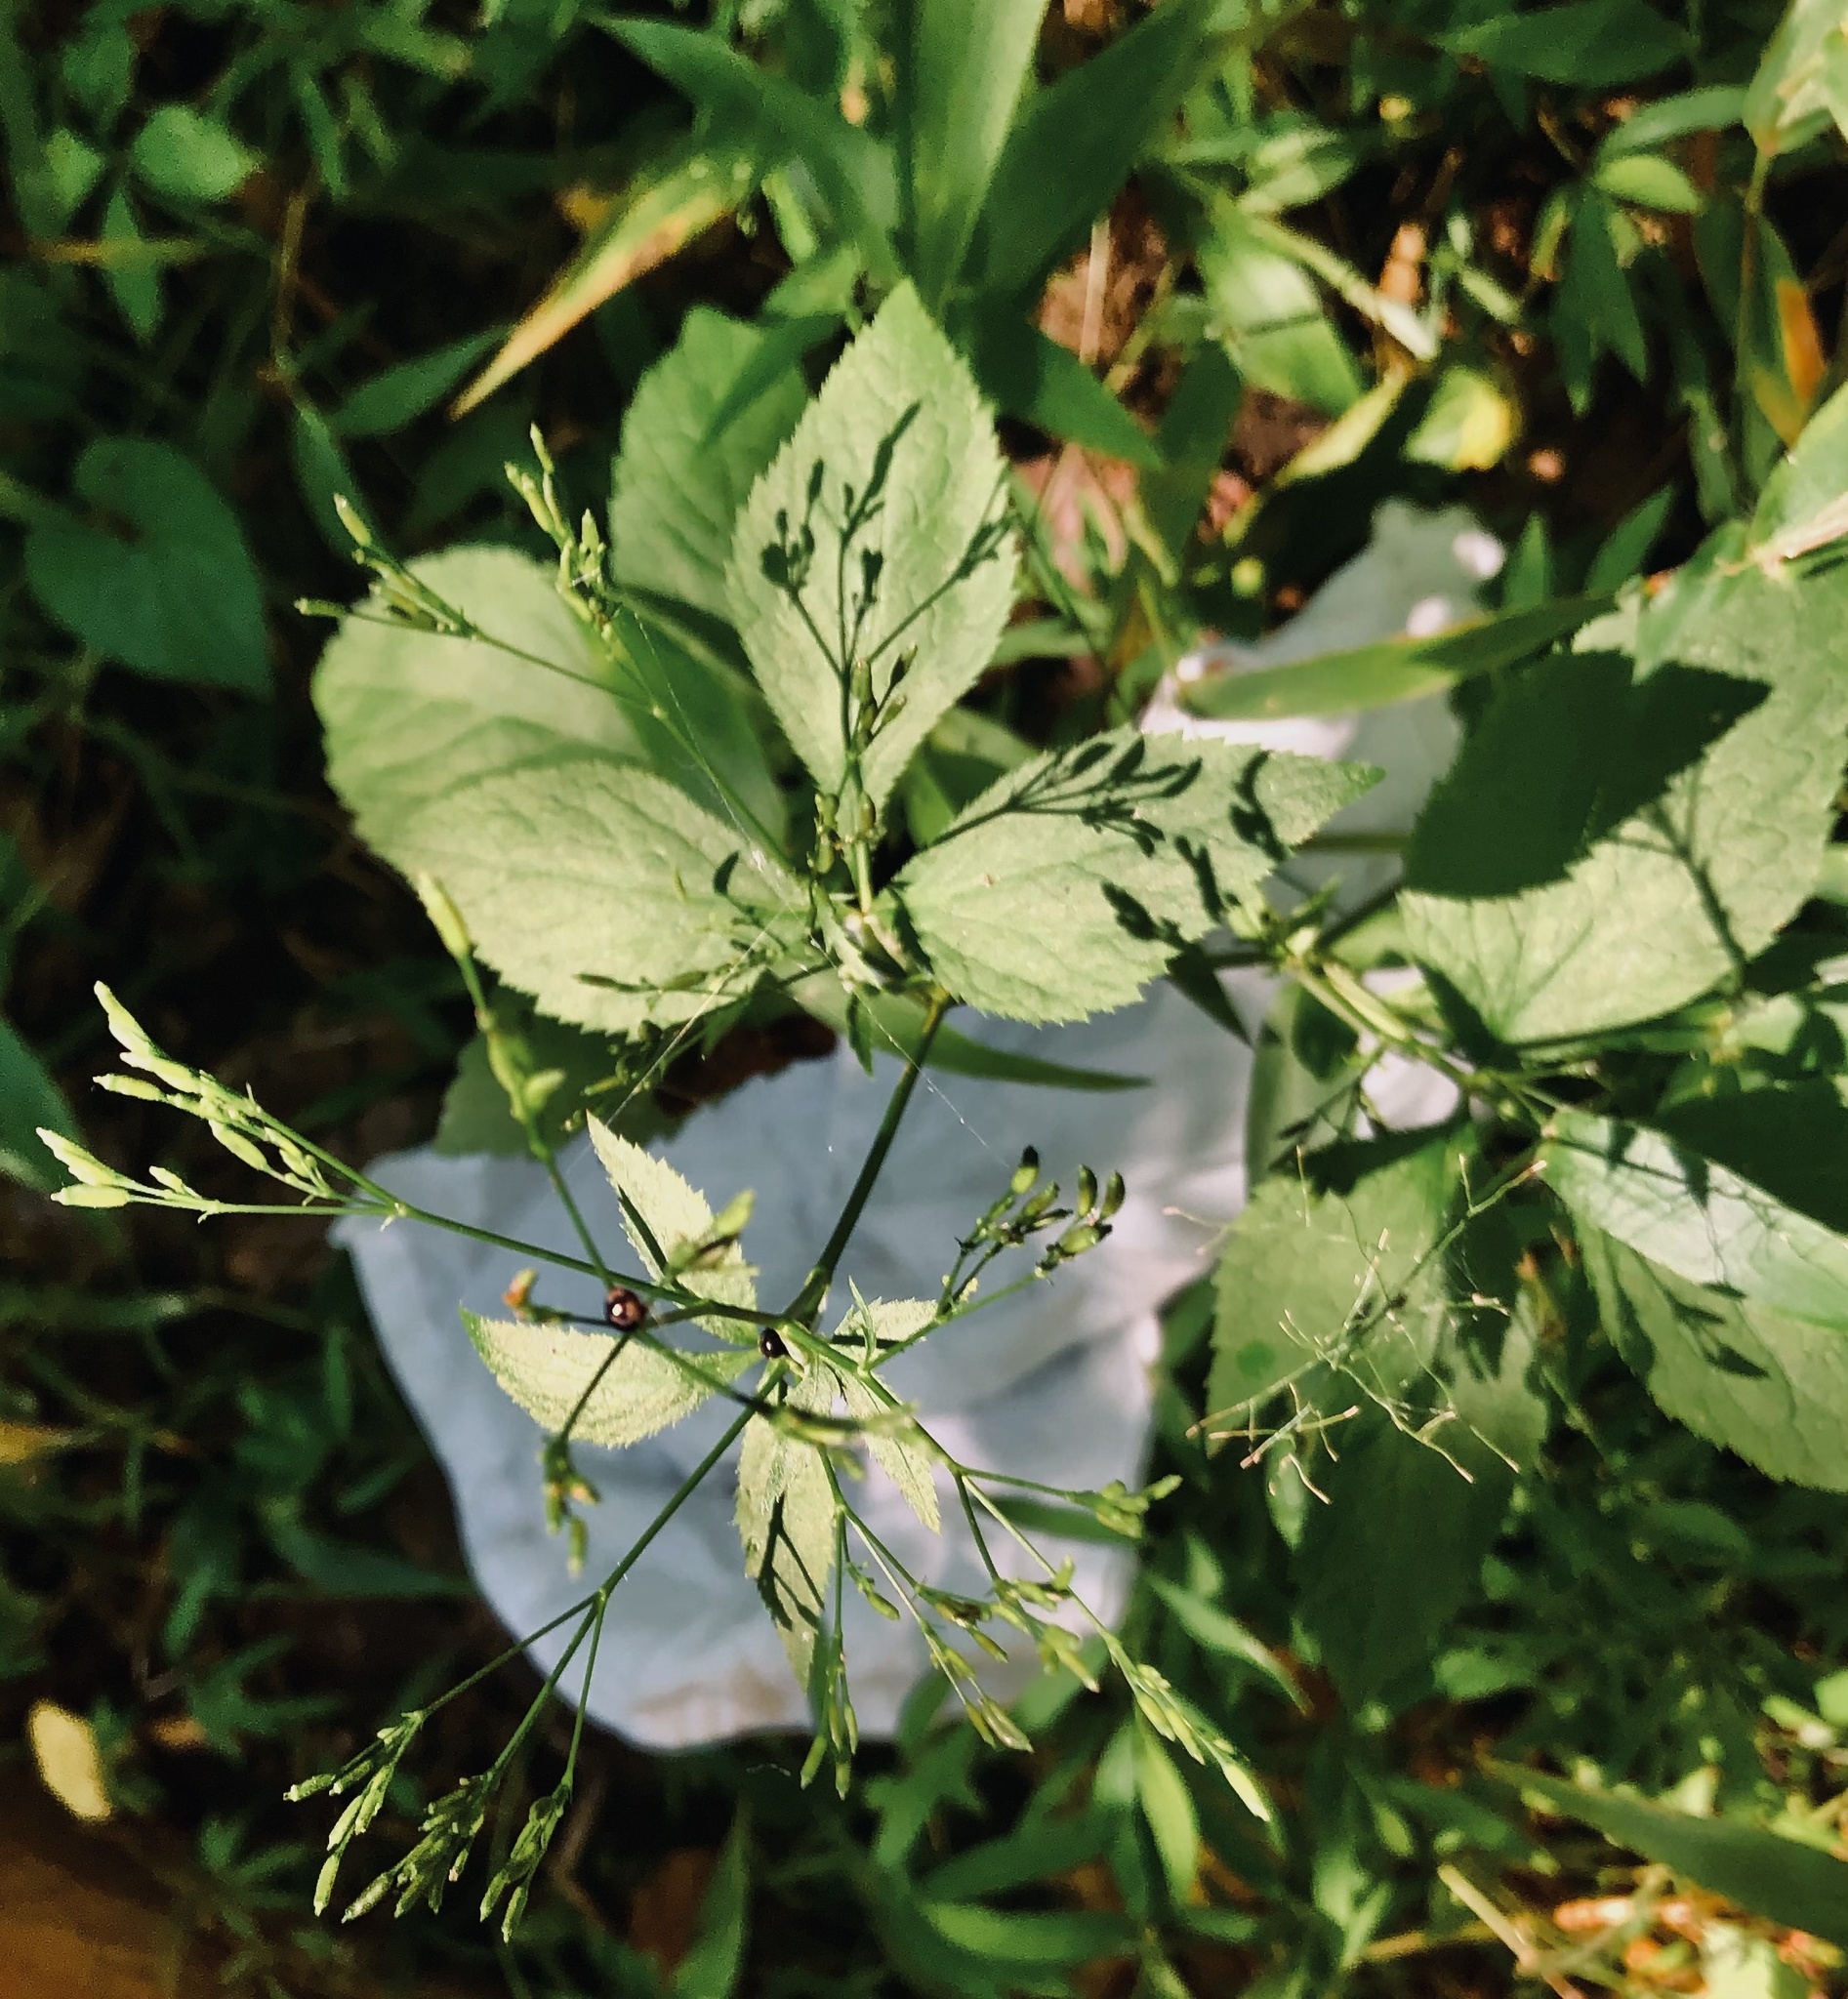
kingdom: Plantae
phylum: Tracheophyta
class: Magnoliopsida
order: Apiales
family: Apiaceae
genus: Cryptotaenia
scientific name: Cryptotaenia canadensis
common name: Honewort
